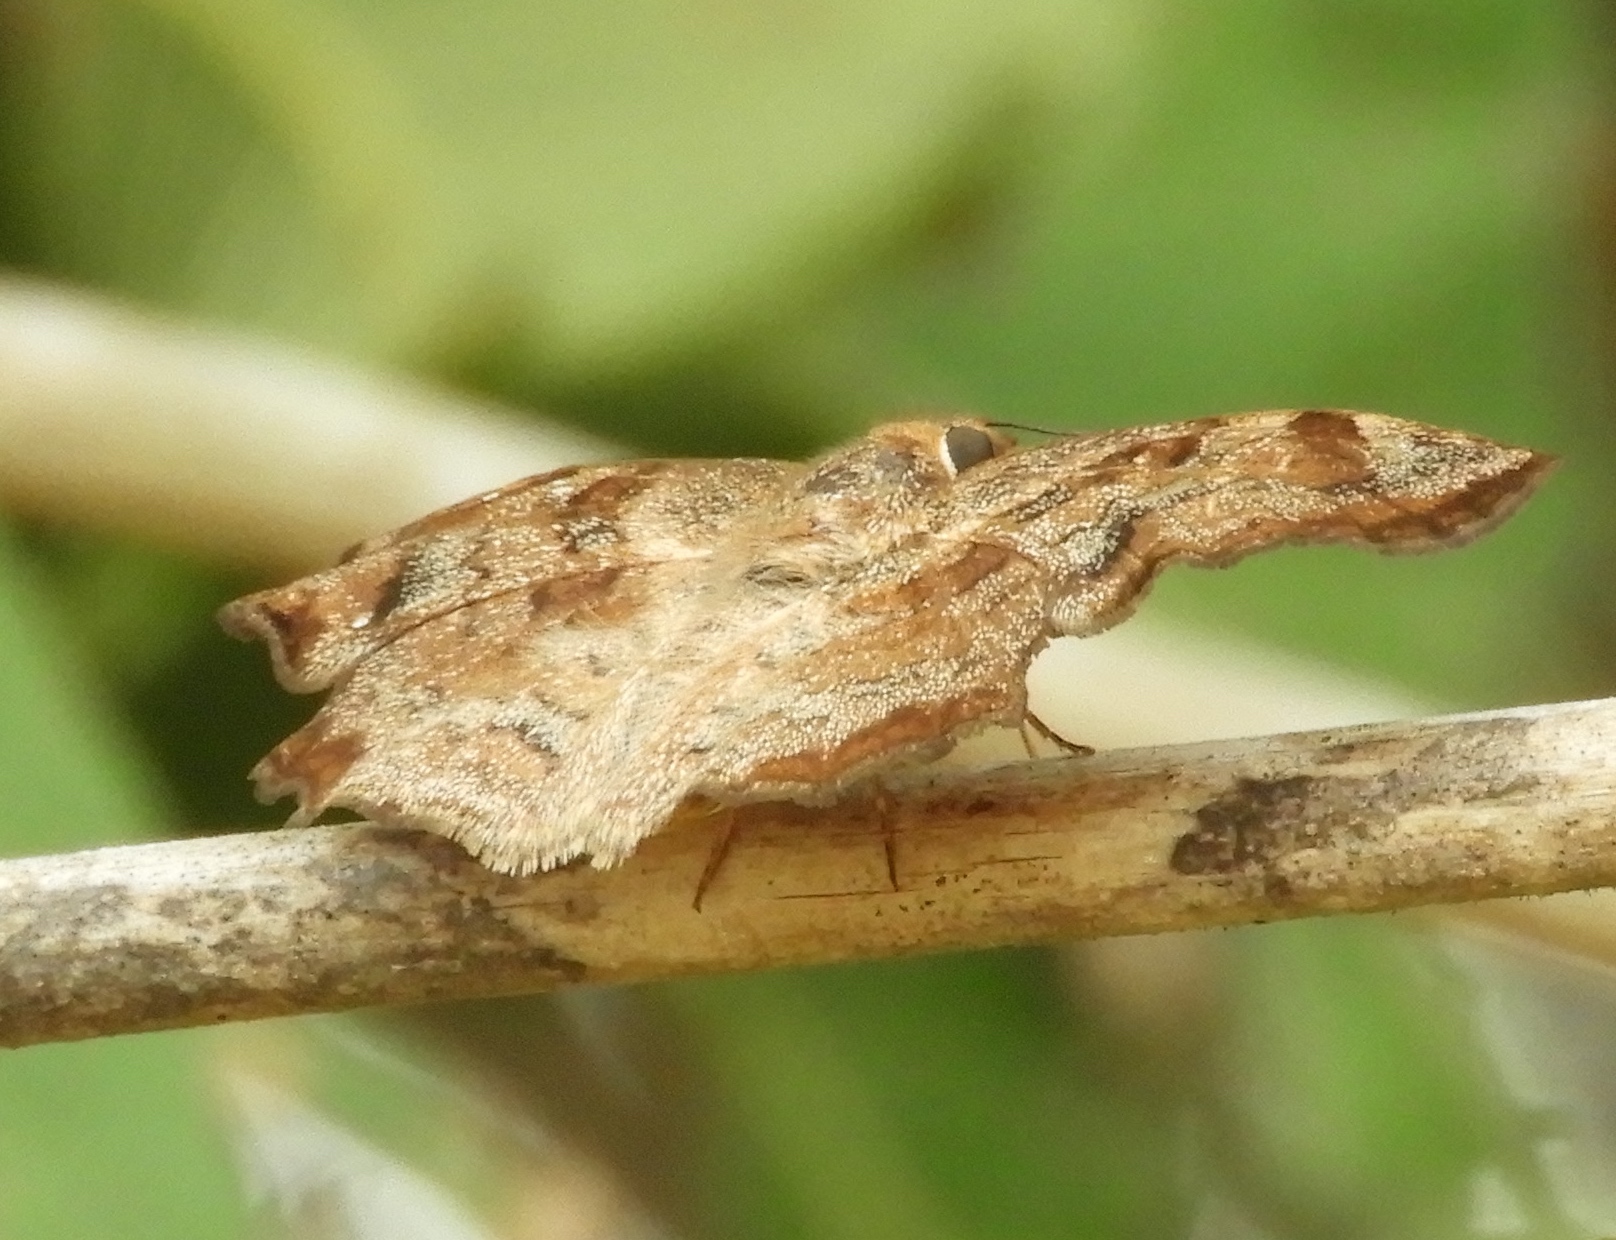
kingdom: Animalia
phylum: Arthropoda
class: Insecta
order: Lepidoptera
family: Hesperiidae
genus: Antigonus
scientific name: Antigonus erosus
